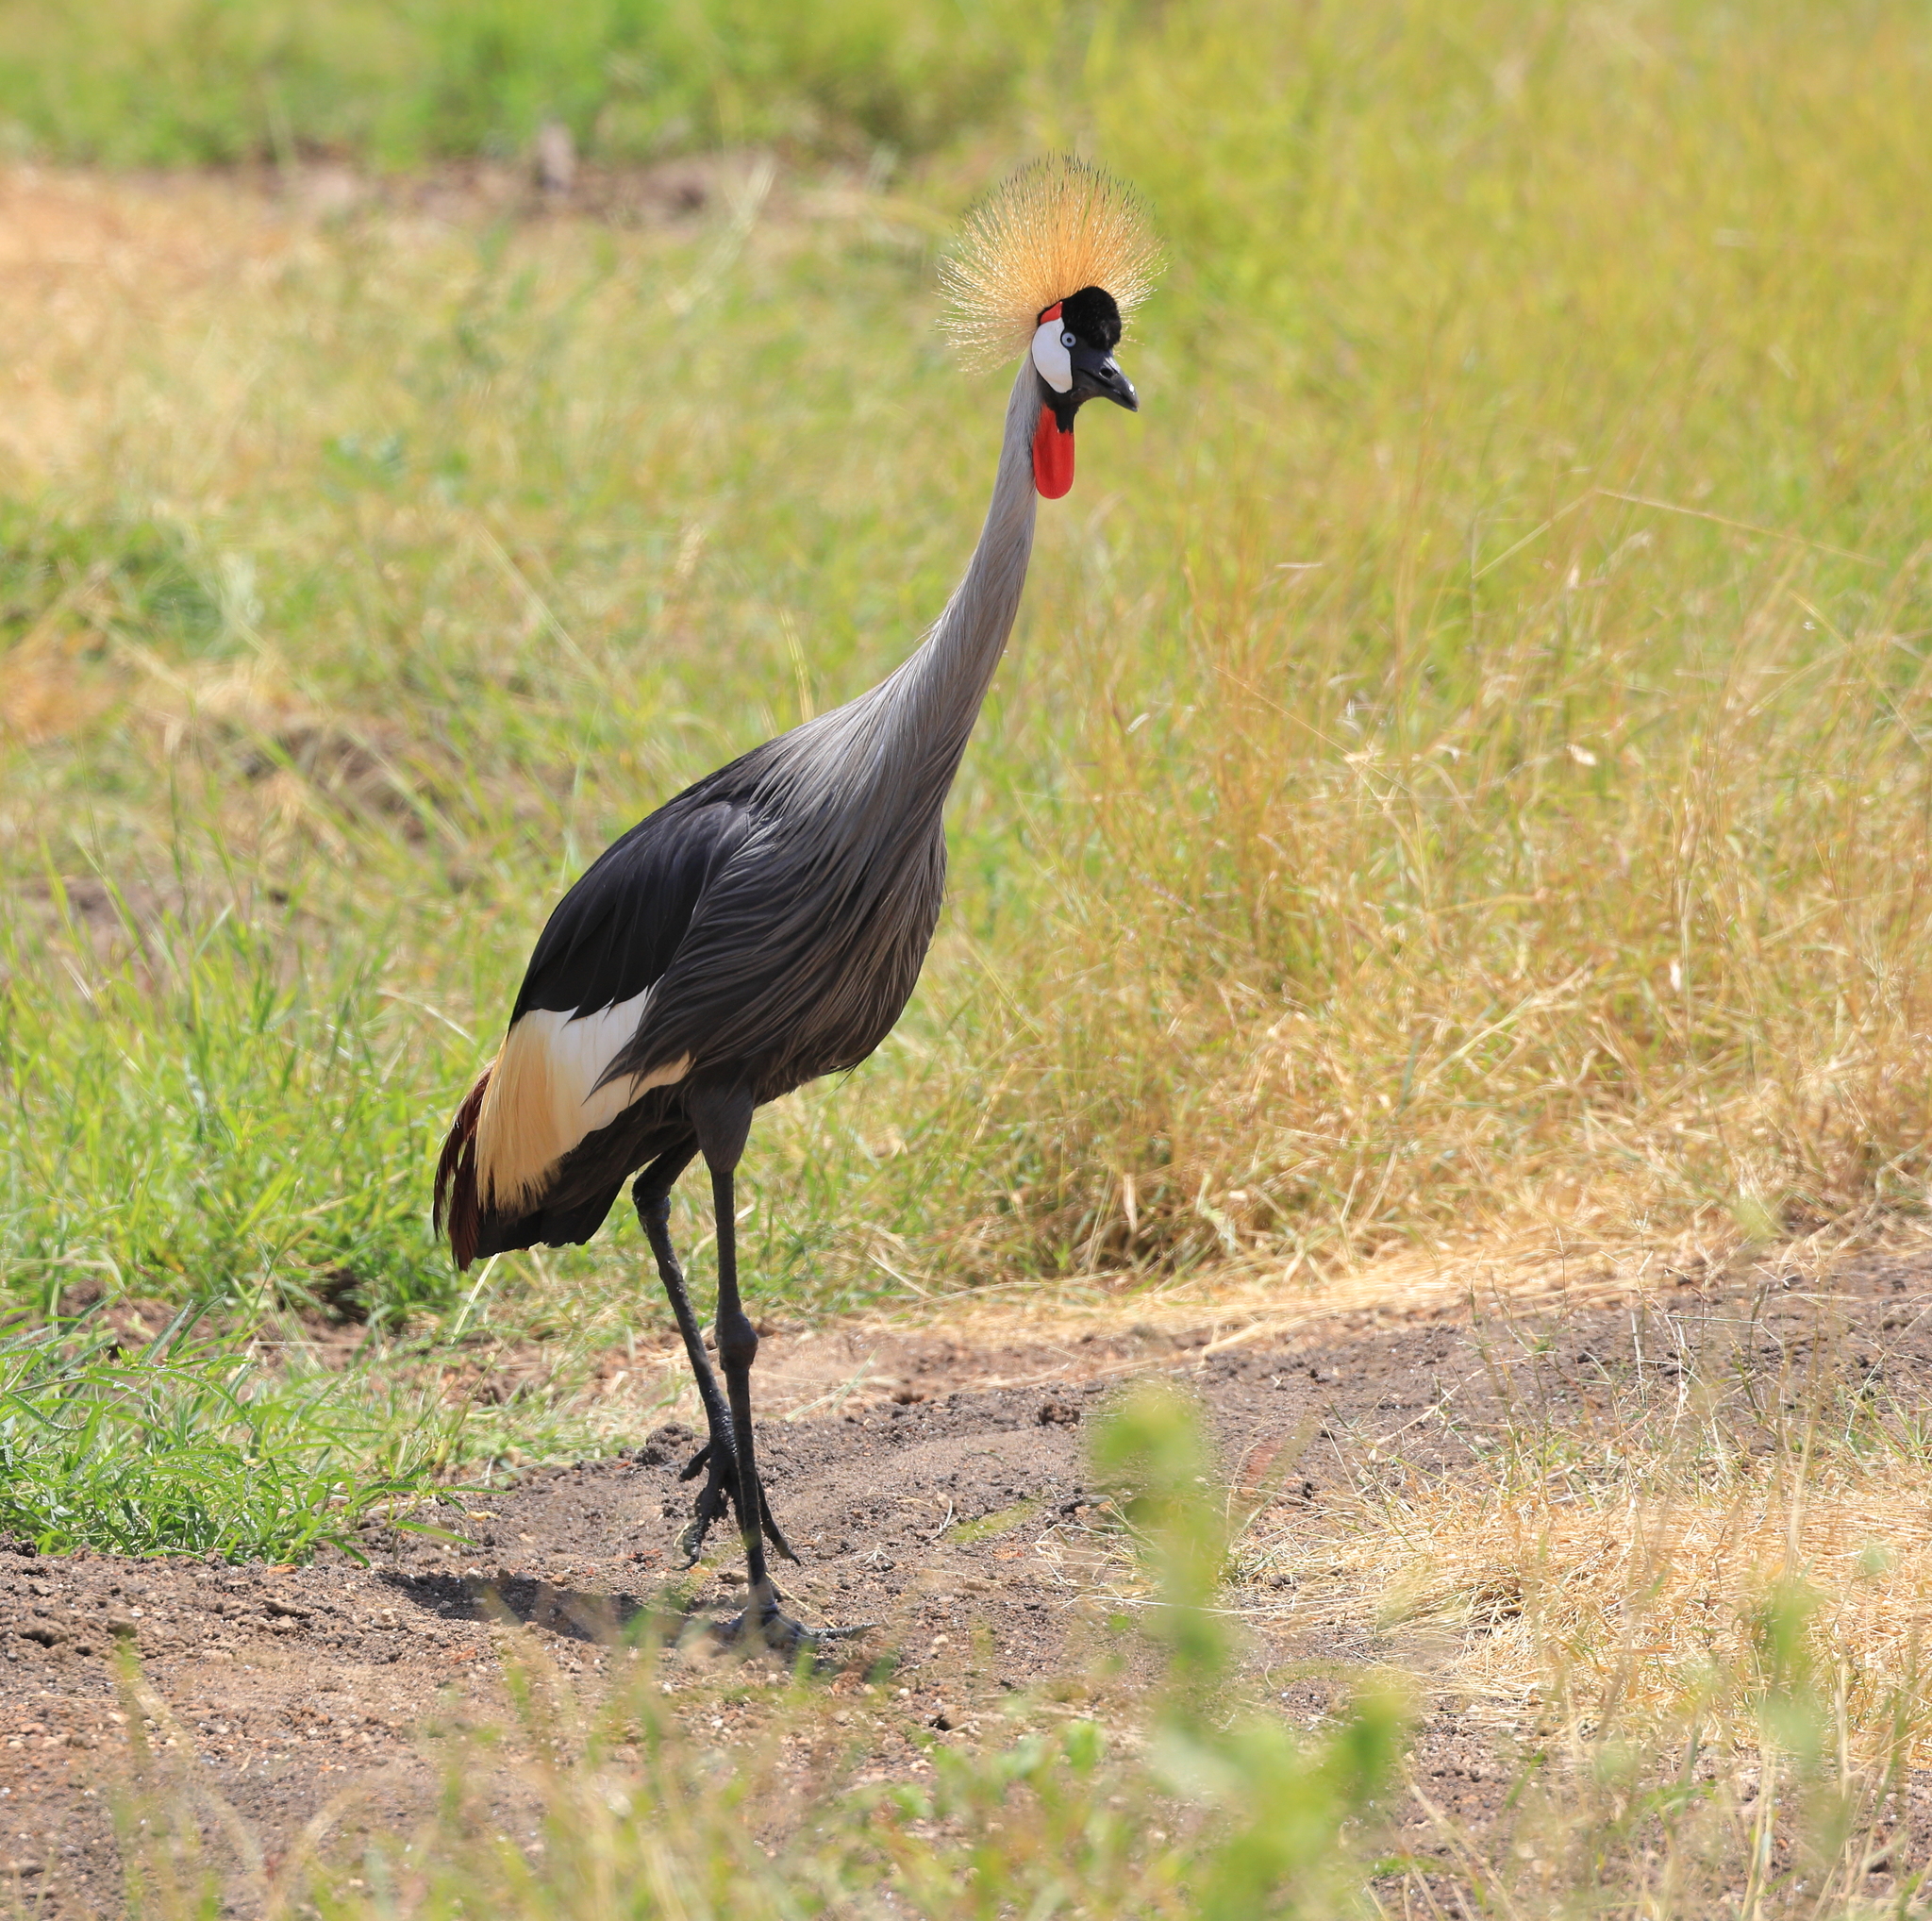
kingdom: Animalia
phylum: Chordata
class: Aves
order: Gruiformes
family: Gruidae
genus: Balearica
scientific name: Balearica regulorum
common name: Grey crowned crane
